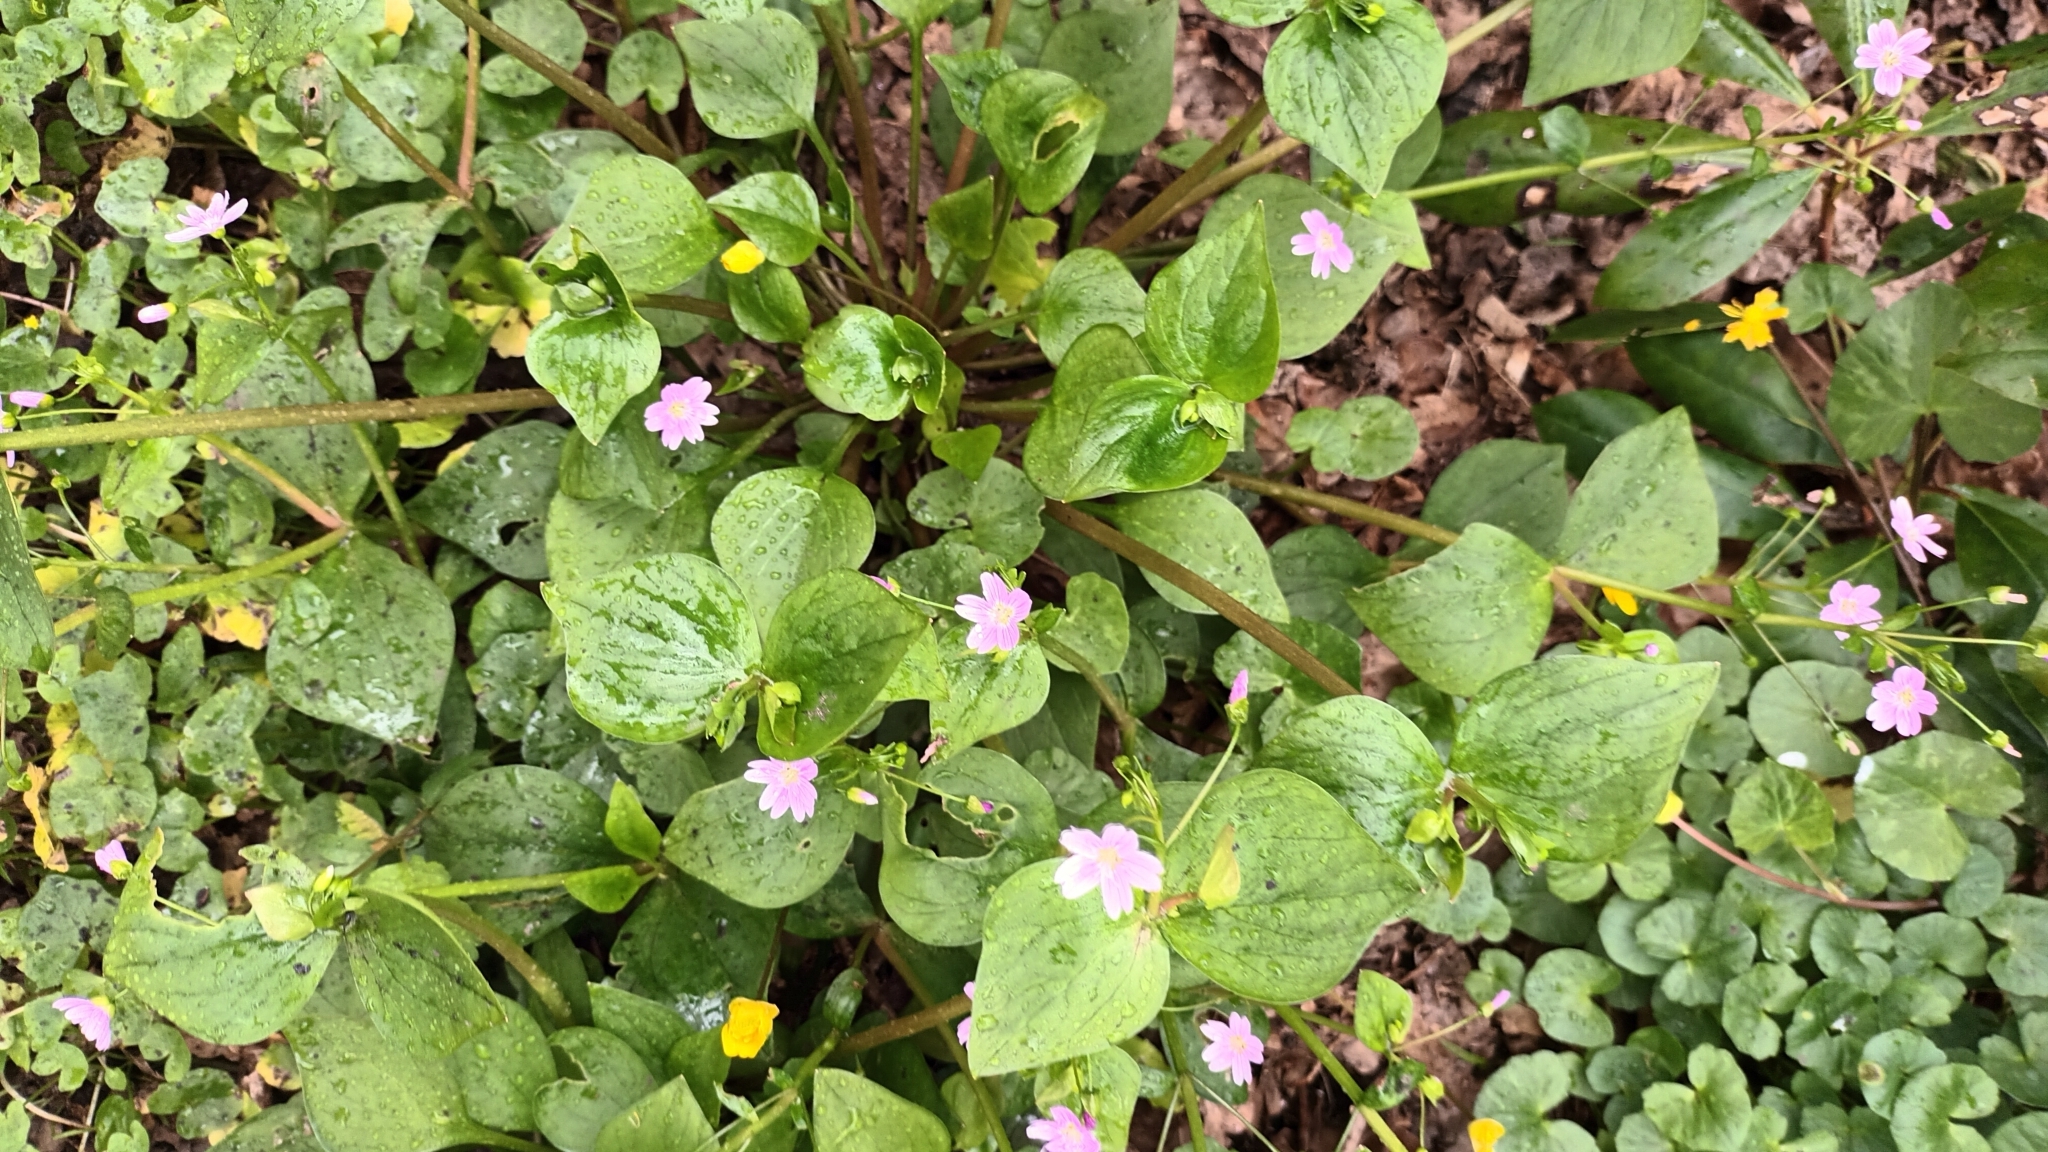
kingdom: Plantae
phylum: Tracheophyta
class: Magnoliopsida
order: Caryophyllales
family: Montiaceae
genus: Claytonia
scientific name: Claytonia sibirica
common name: Pink purslane
